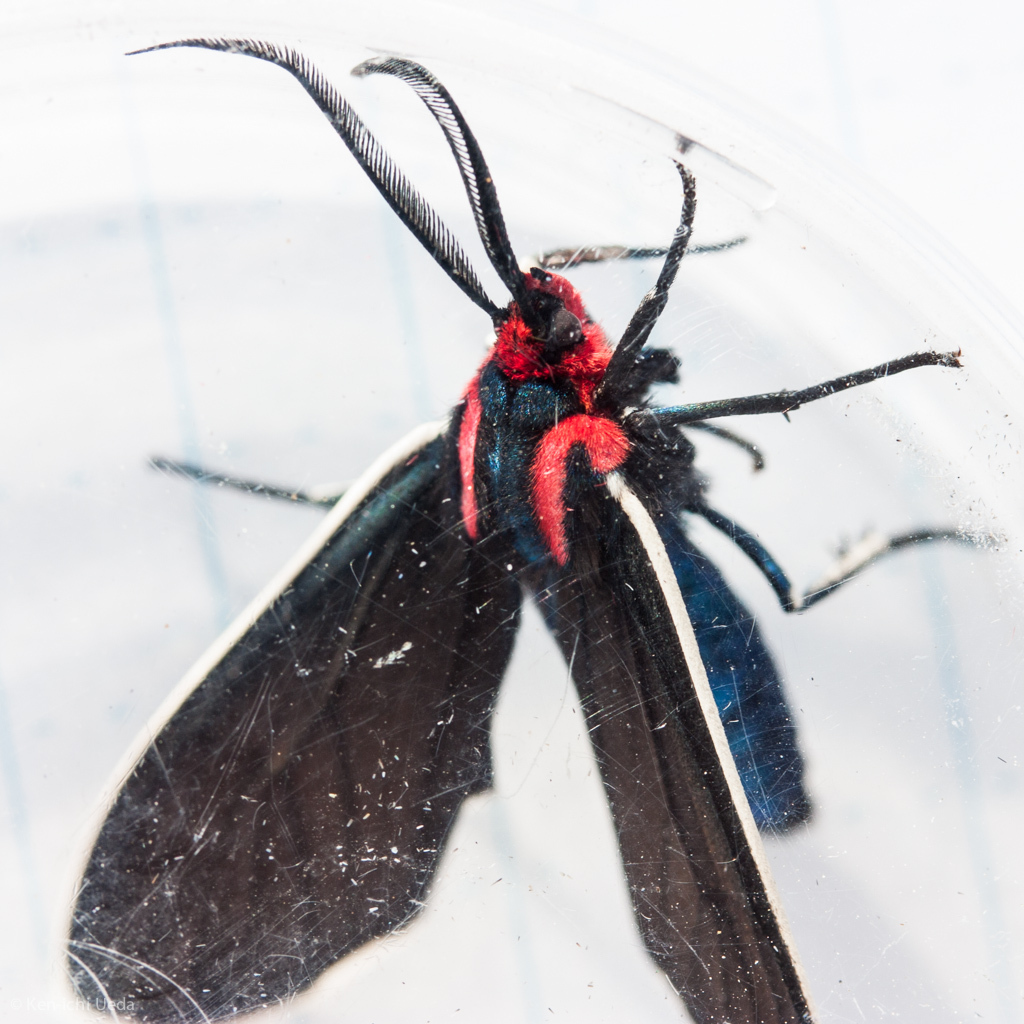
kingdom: Animalia
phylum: Arthropoda
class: Insecta
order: Lepidoptera
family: Erebidae
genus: Ctenucha
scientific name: Ctenucha multifaria
